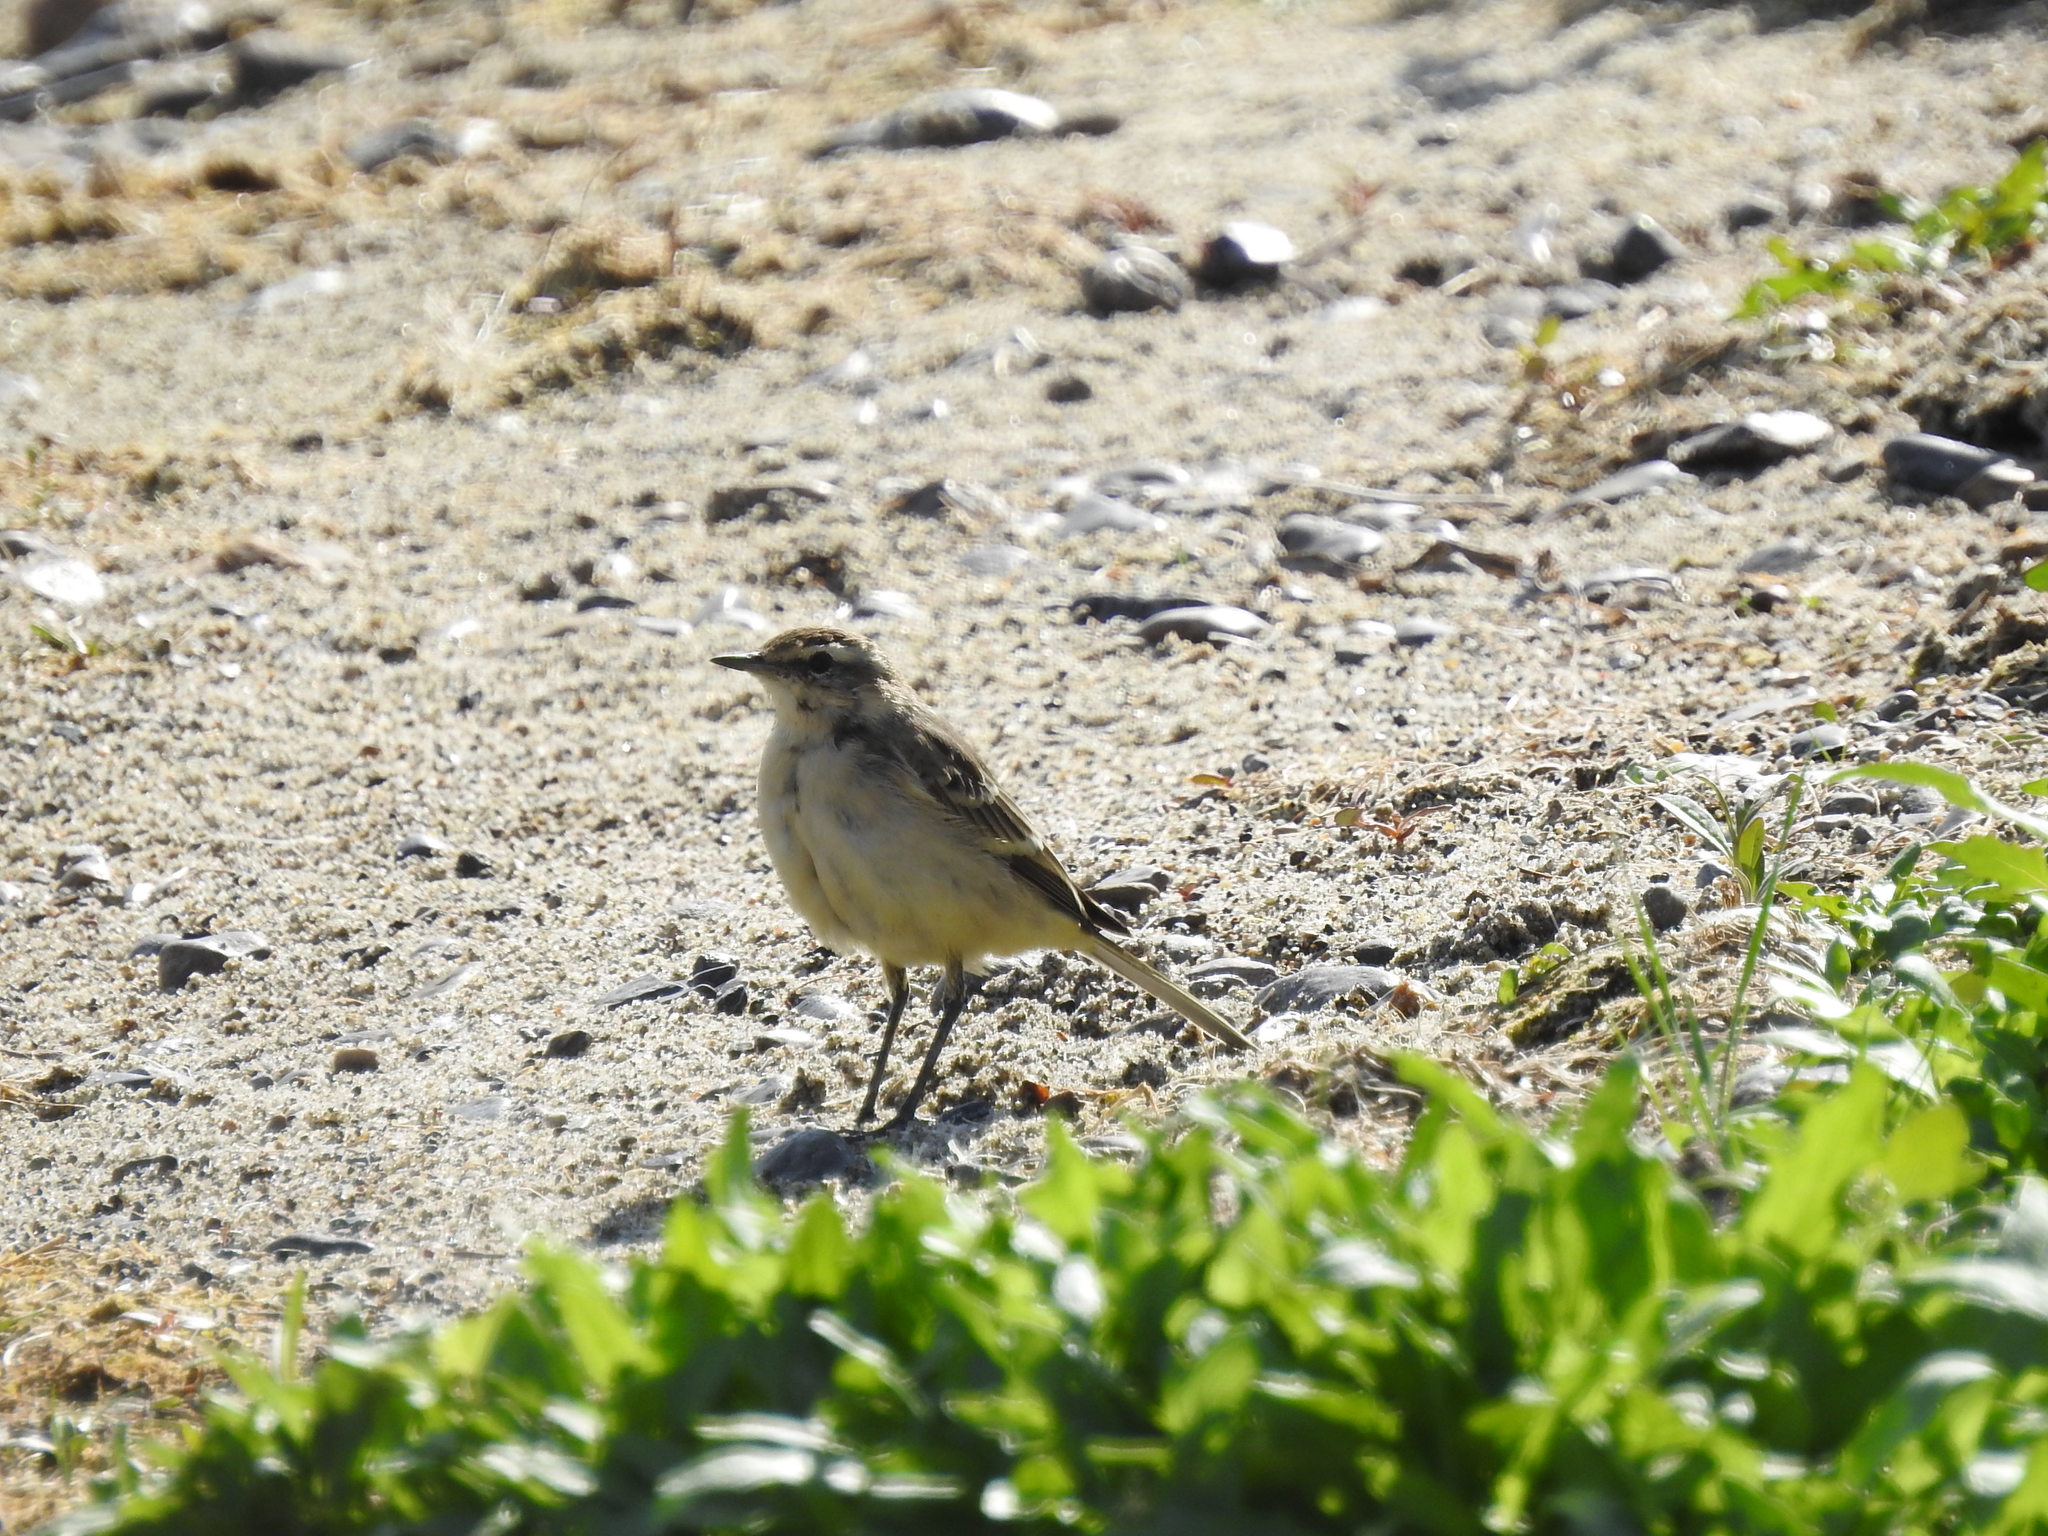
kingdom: Animalia
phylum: Chordata
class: Aves
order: Passeriformes
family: Motacillidae
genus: Motacilla
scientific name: Motacilla flava
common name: Western yellow wagtail
